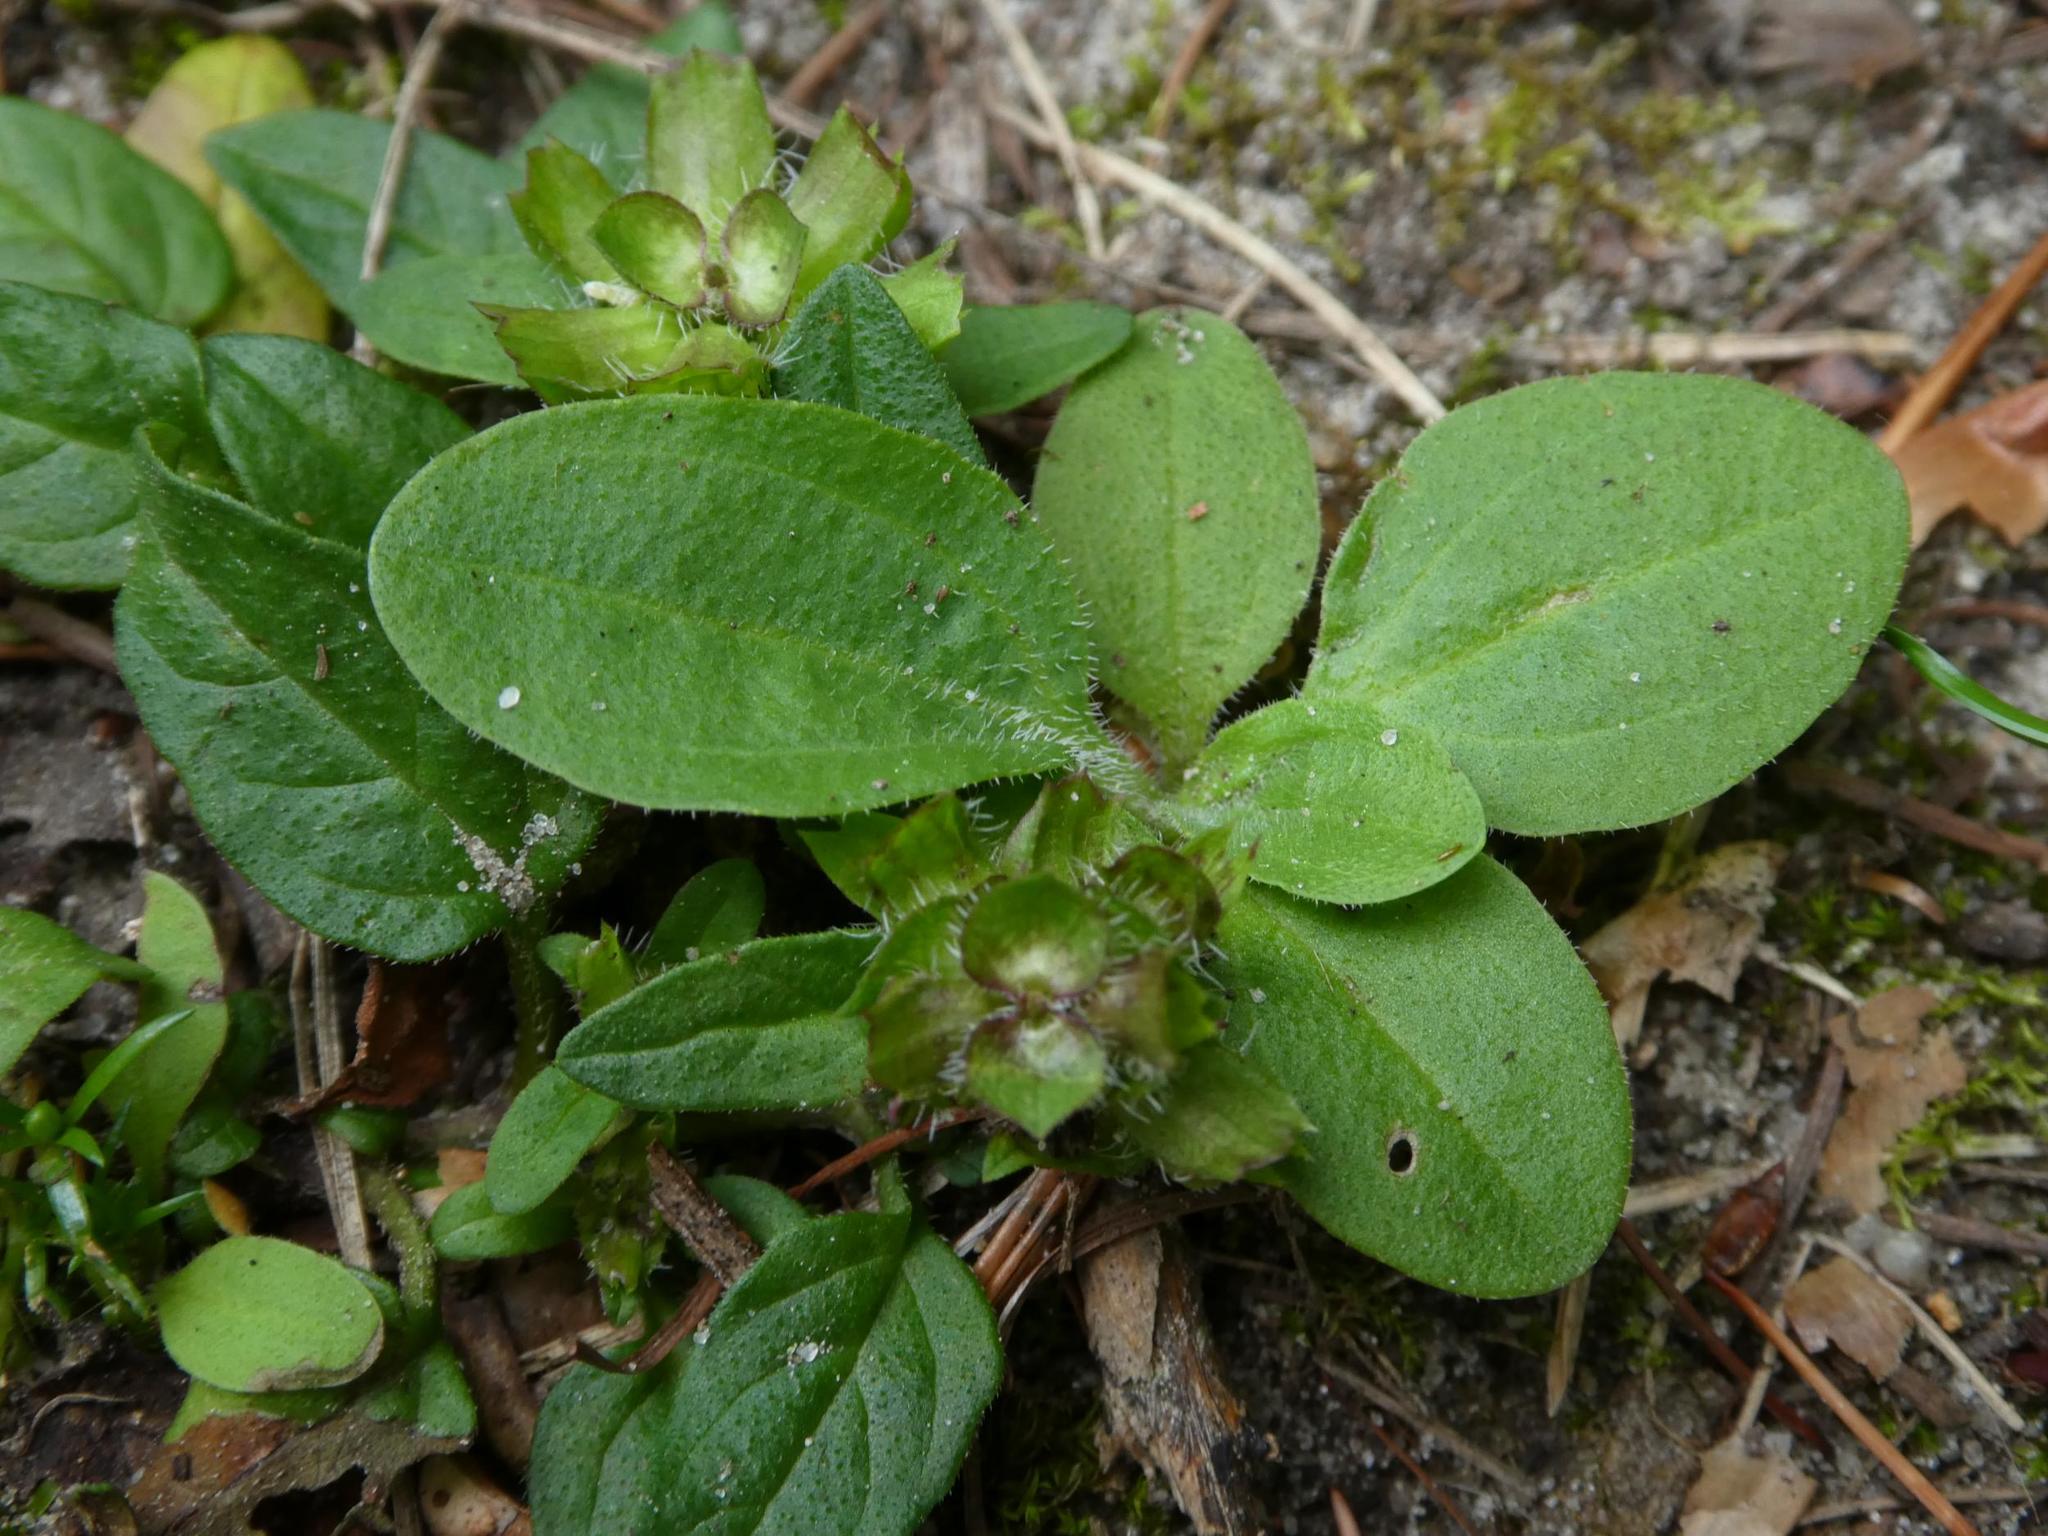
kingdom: Plantae
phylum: Tracheophyta
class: Magnoliopsida
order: Lamiales
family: Lamiaceae
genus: Prunella
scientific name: Prunella vulgaris
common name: Heal-all
